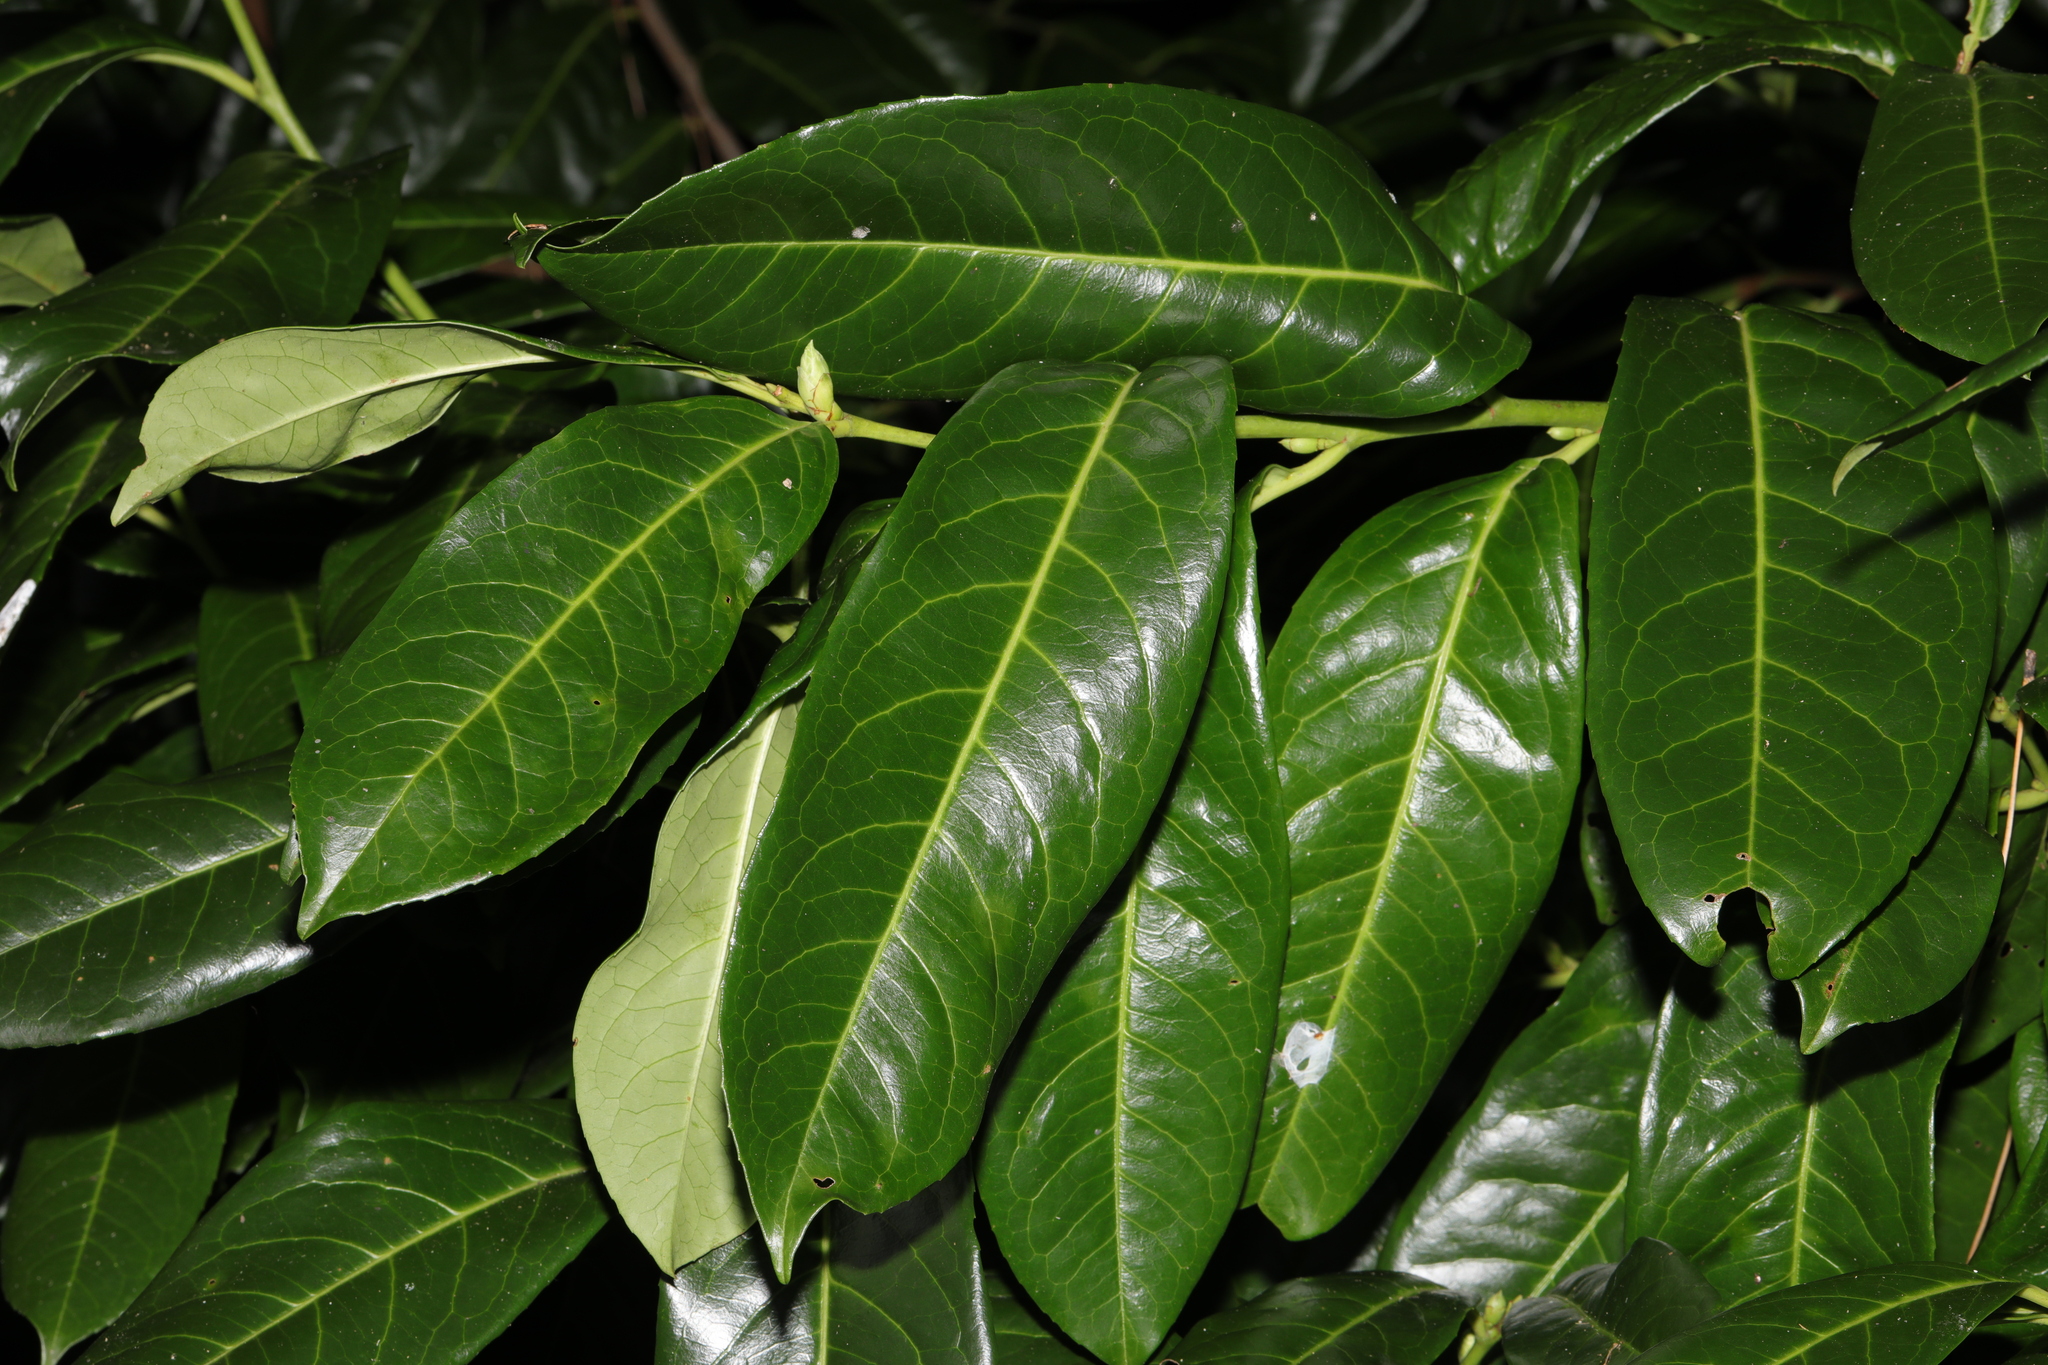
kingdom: Plantae
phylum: Tracheophyta
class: Magnoliopsida
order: Rosales
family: Rosaceae
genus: Prunus
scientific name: Prunus laurocerasus
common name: Cherry laurel
